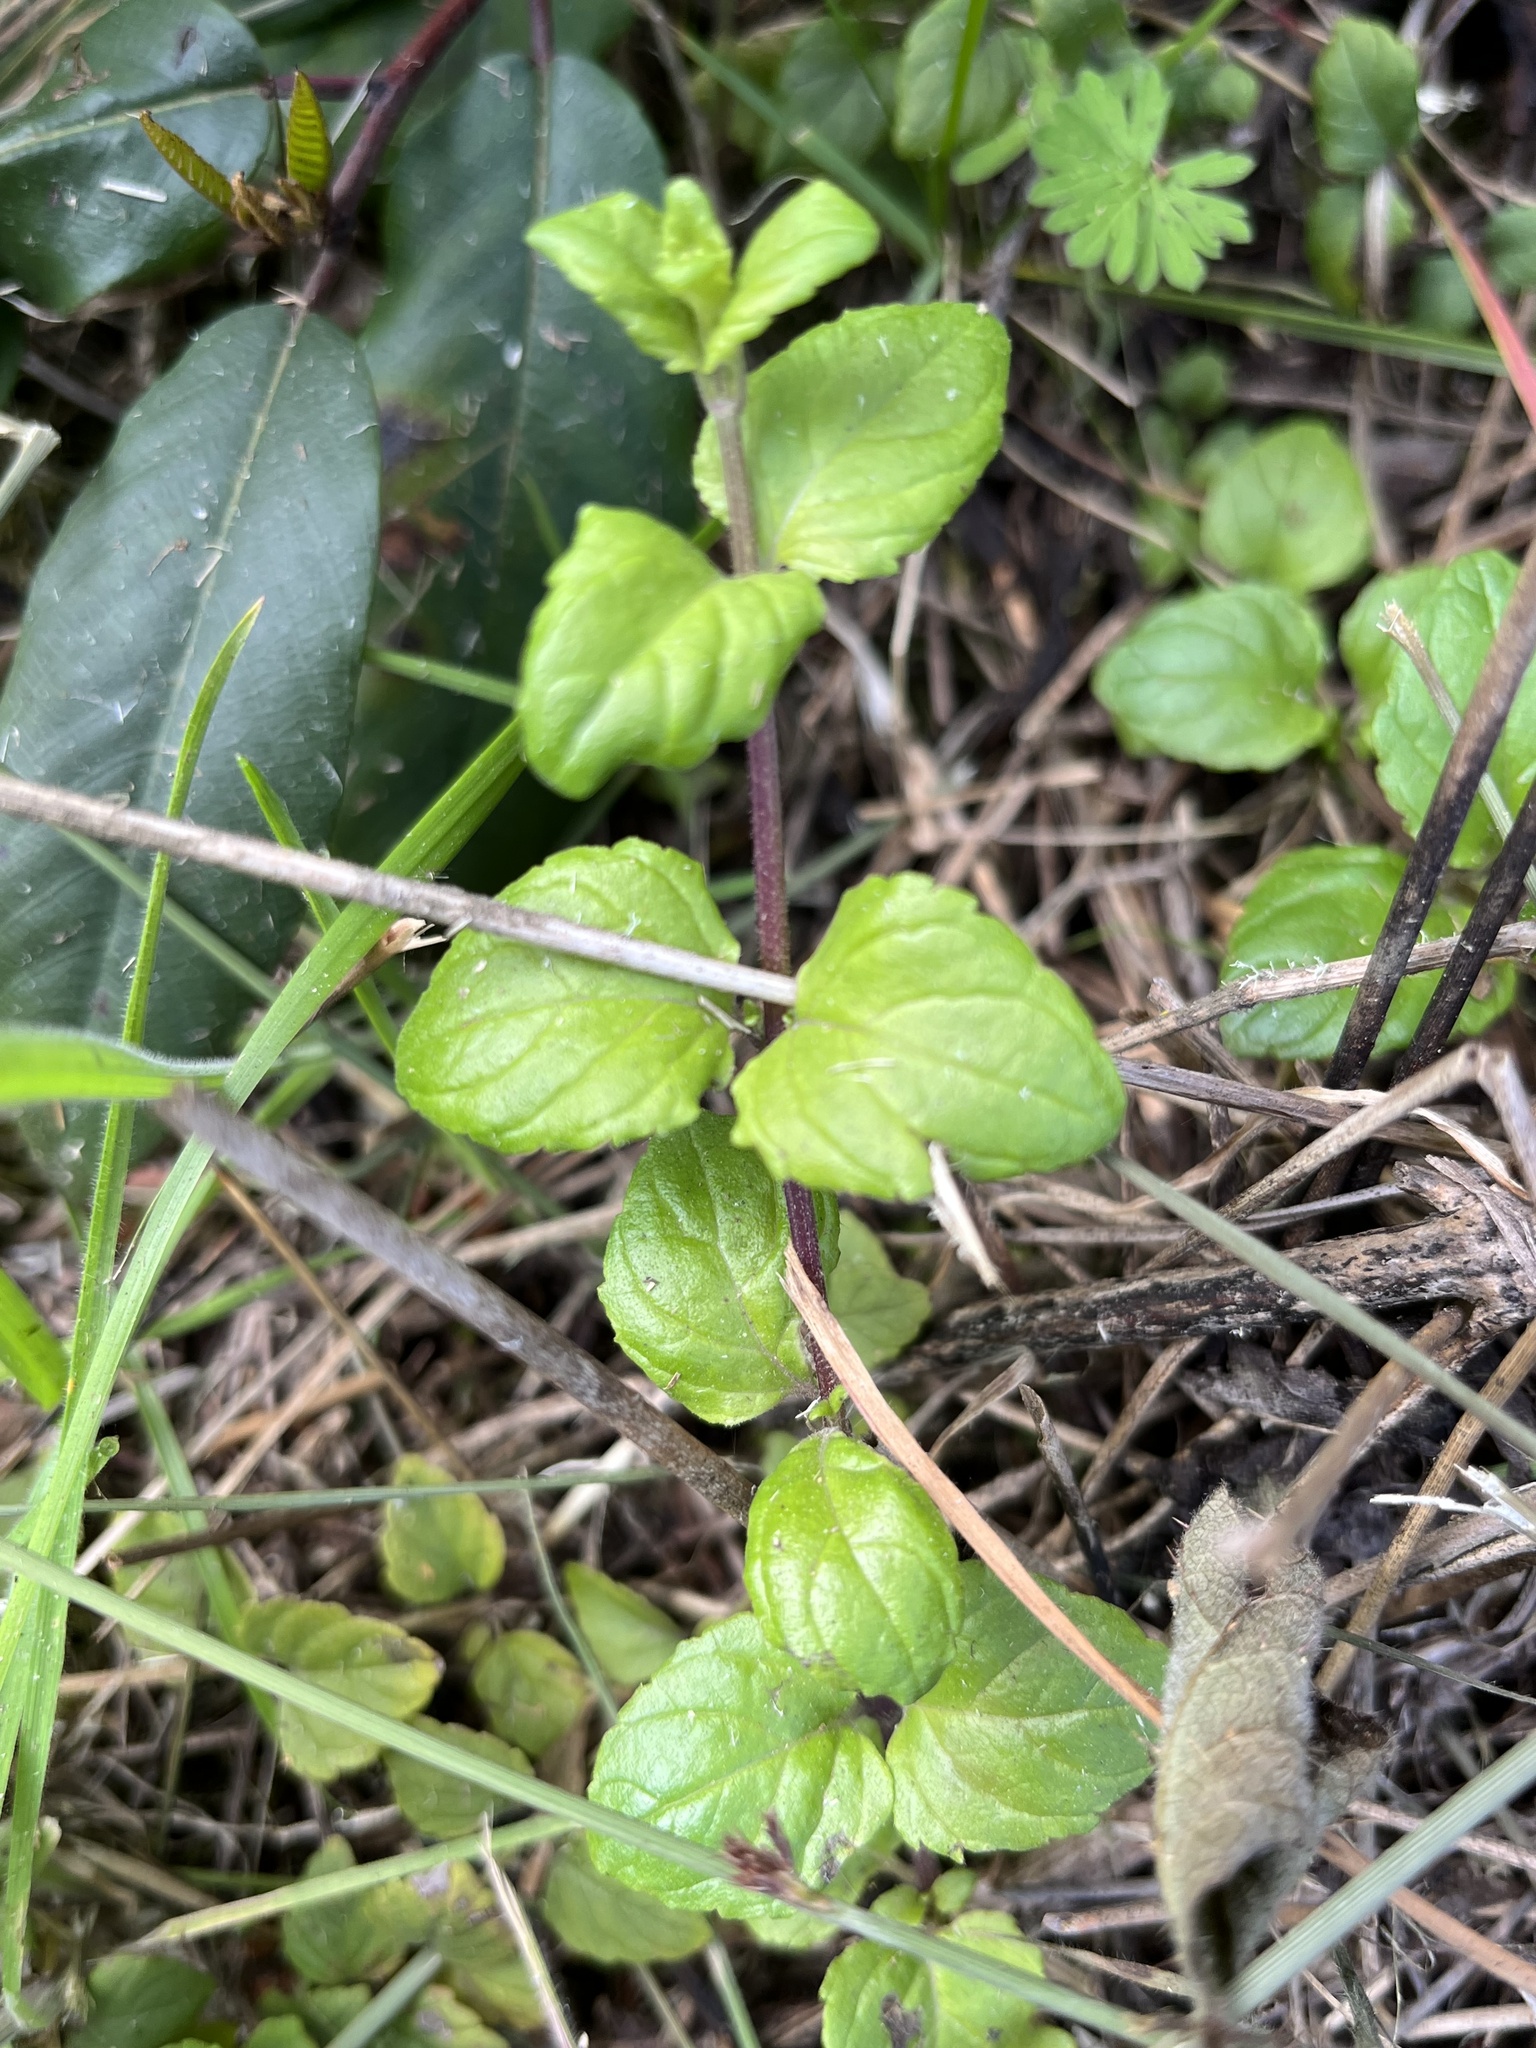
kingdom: Plantae
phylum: Tracheophyta
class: Magnoliopsida
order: Lamiales
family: Lamiaceae
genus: Micromeria
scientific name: Micromeria douglasii
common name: Yerba buena
